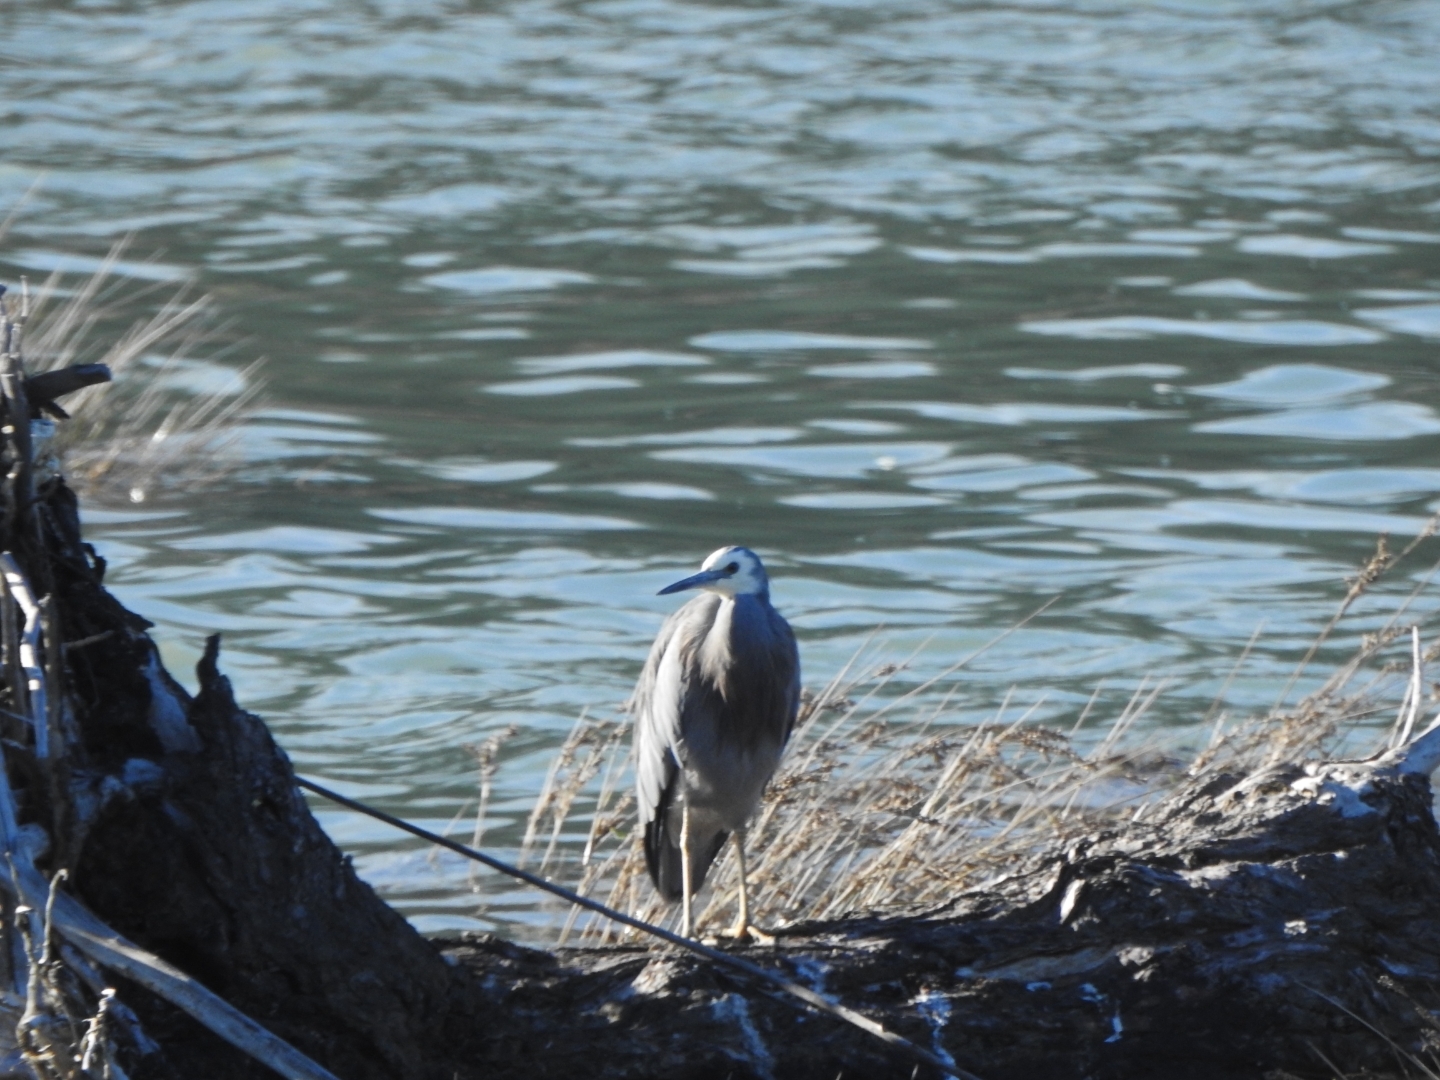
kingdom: Animalia
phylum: Chordata
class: Aves
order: Pelecaniformes
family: Ardeidae
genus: Egretta
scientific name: Egretta novaehollandiae
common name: White-faced heron
